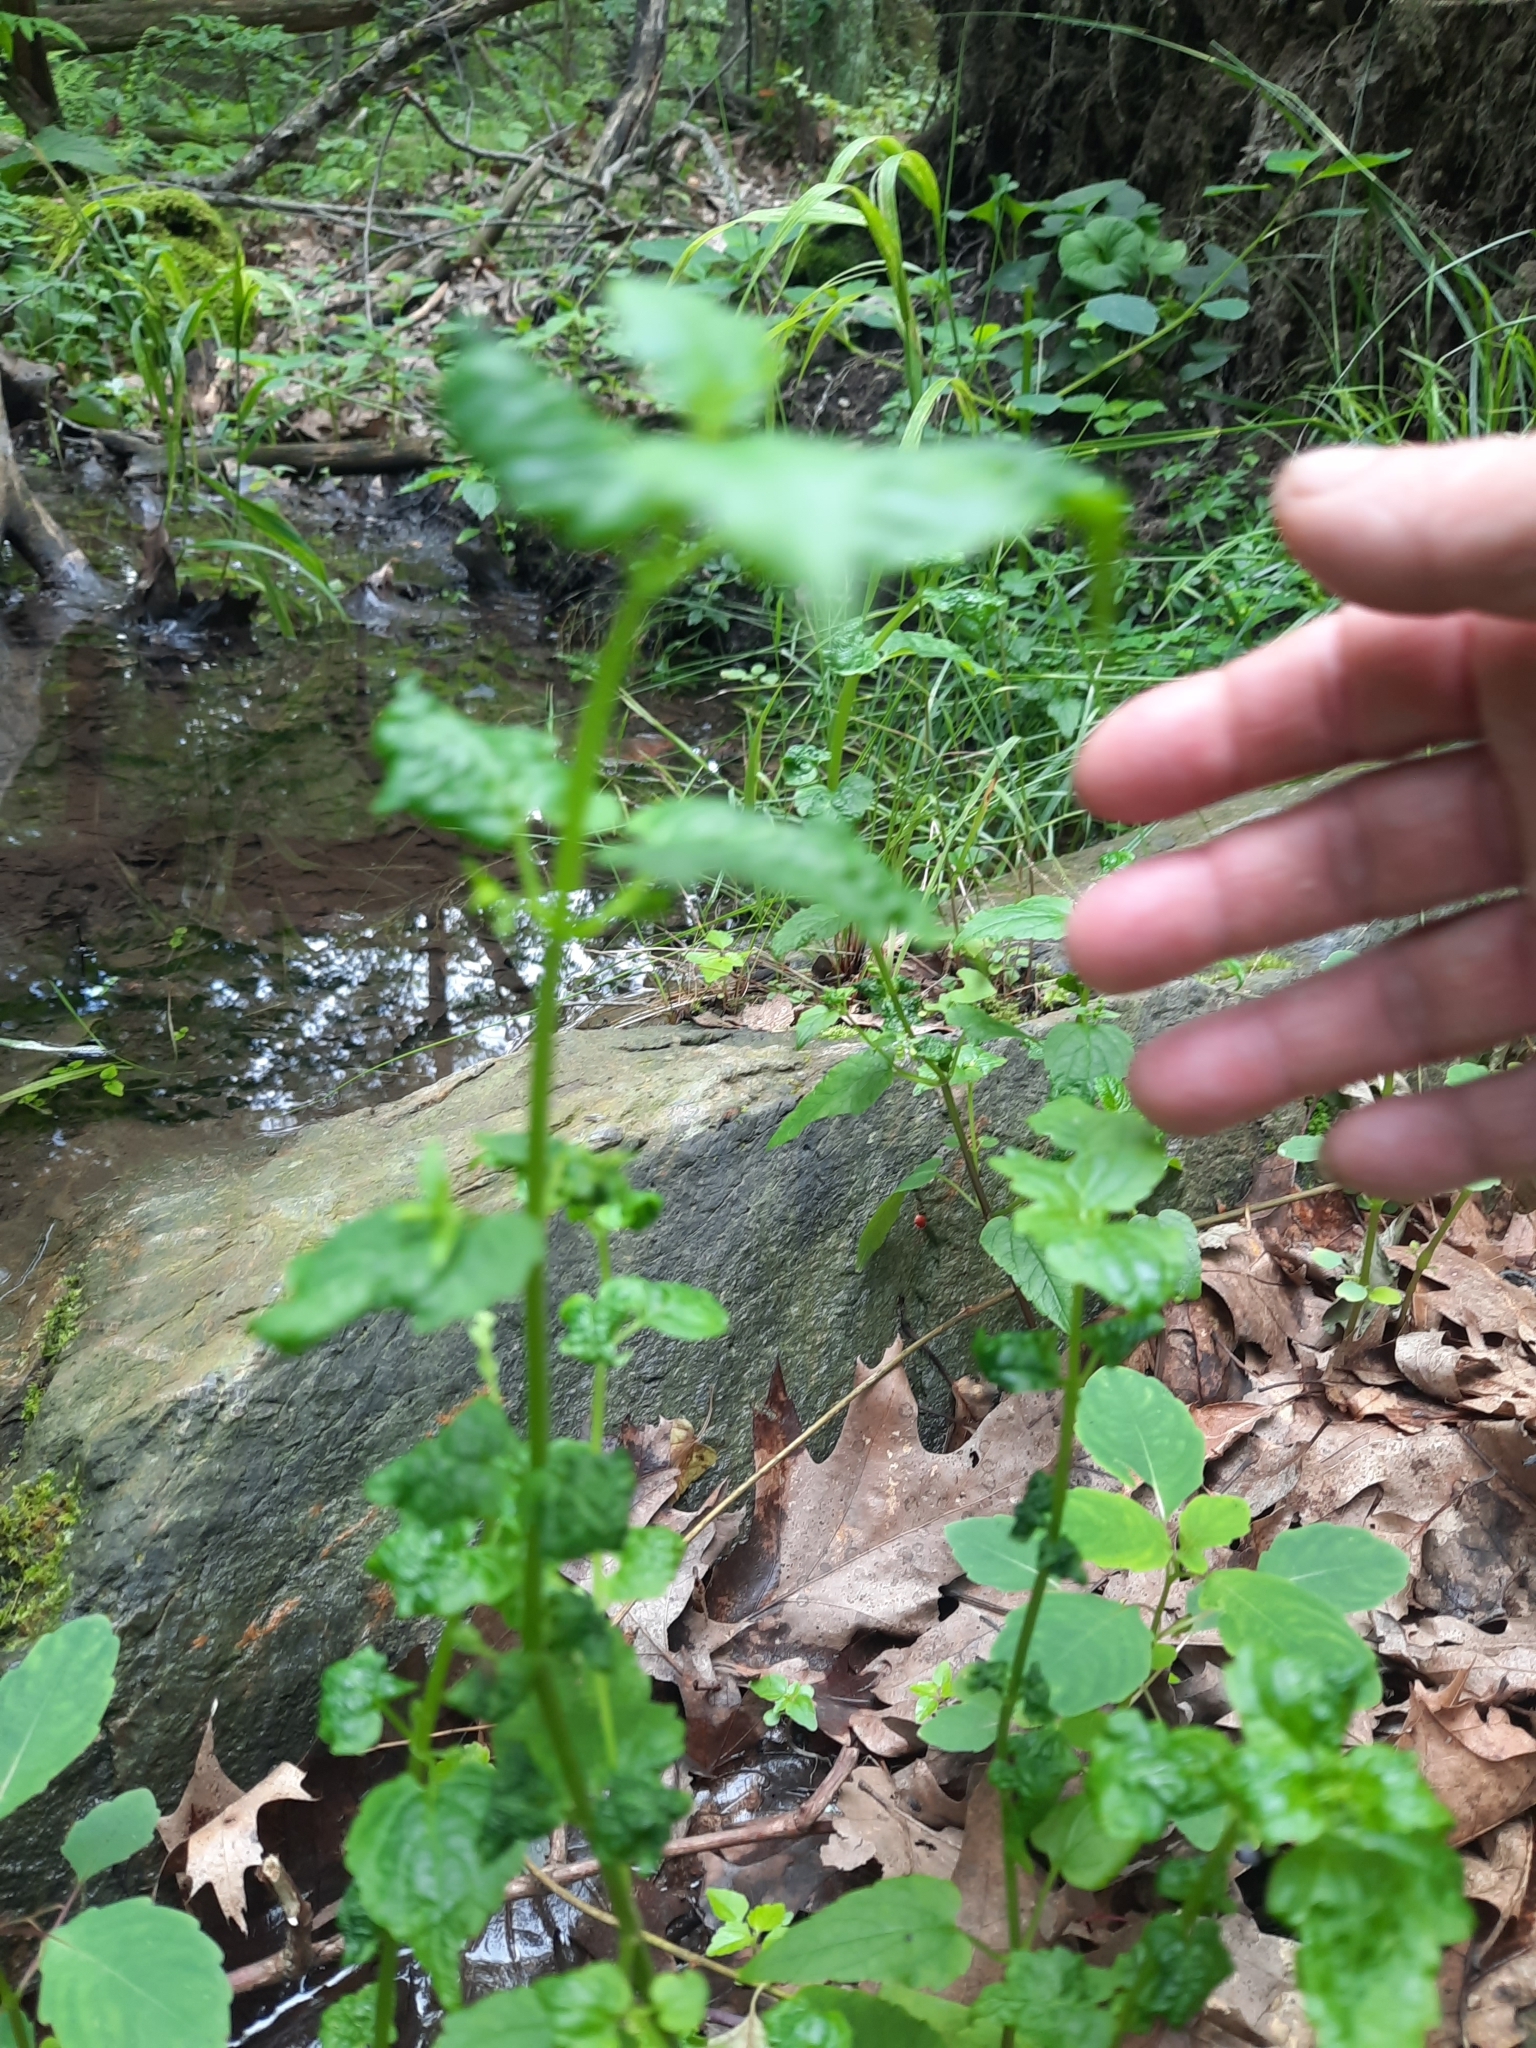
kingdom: Plantae
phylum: Tracheophyta
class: Magnoliopsida
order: Lamiales
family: Lamiaceae
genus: Scutellaria
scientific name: Scutellaria lateriflora
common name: Blue skullcap
